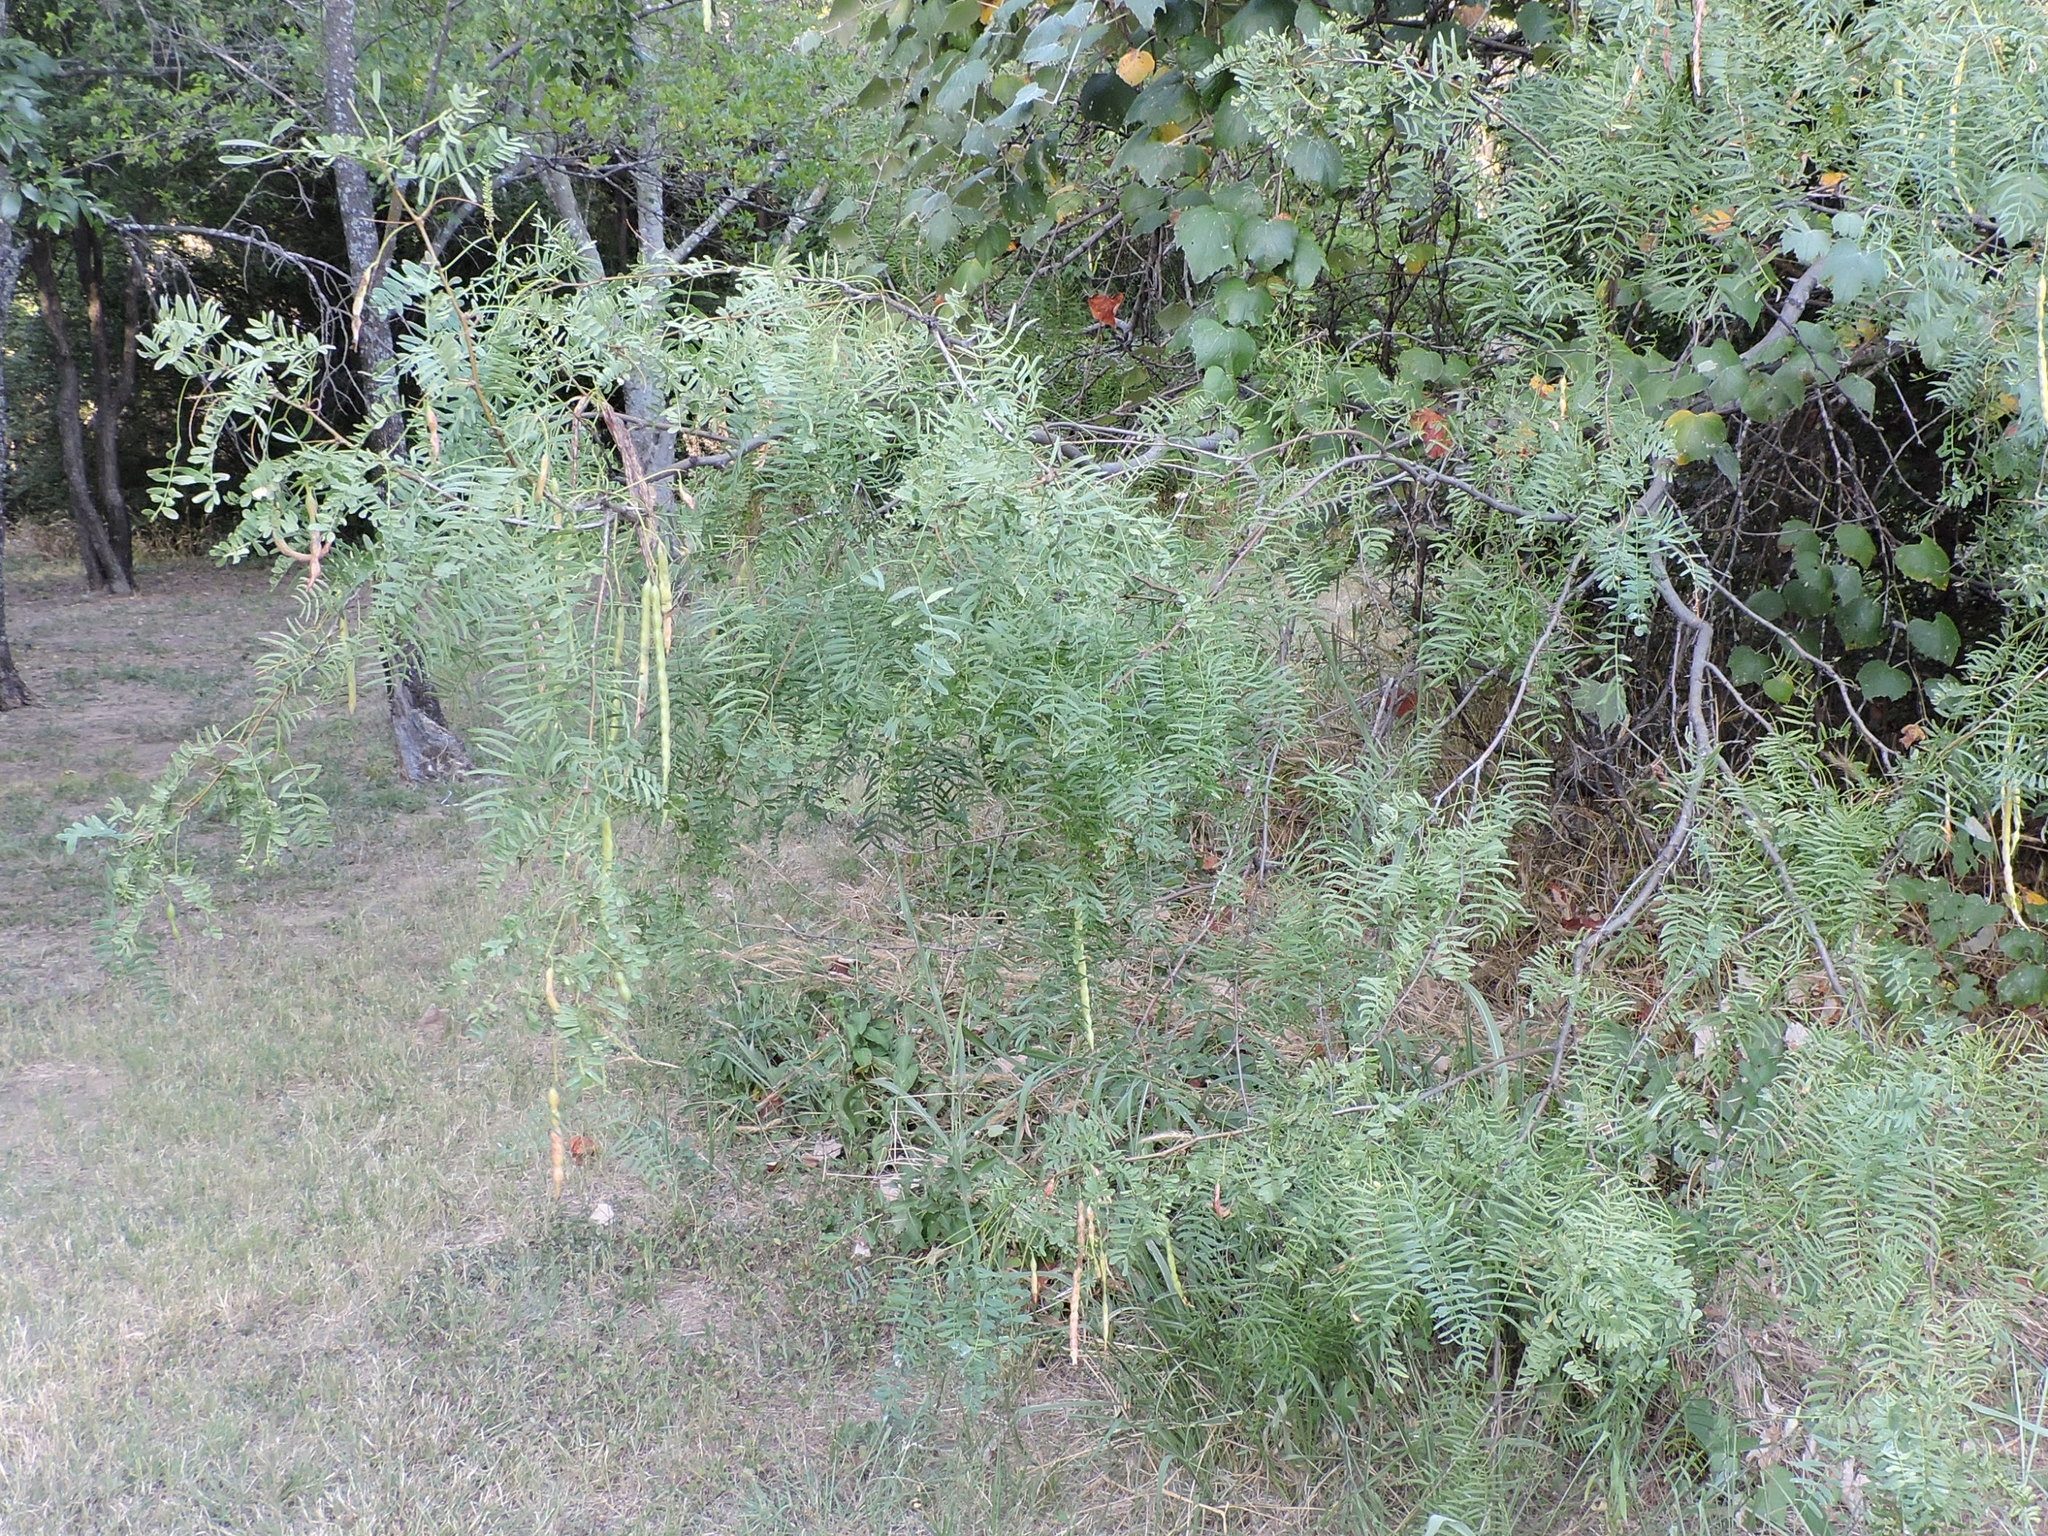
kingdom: Plantae
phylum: Tracheophyta
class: Magnoliopsida
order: Fabales
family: Fabaceae
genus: Prosopis
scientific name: Prosopis glandulosa
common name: Honey mesquite
